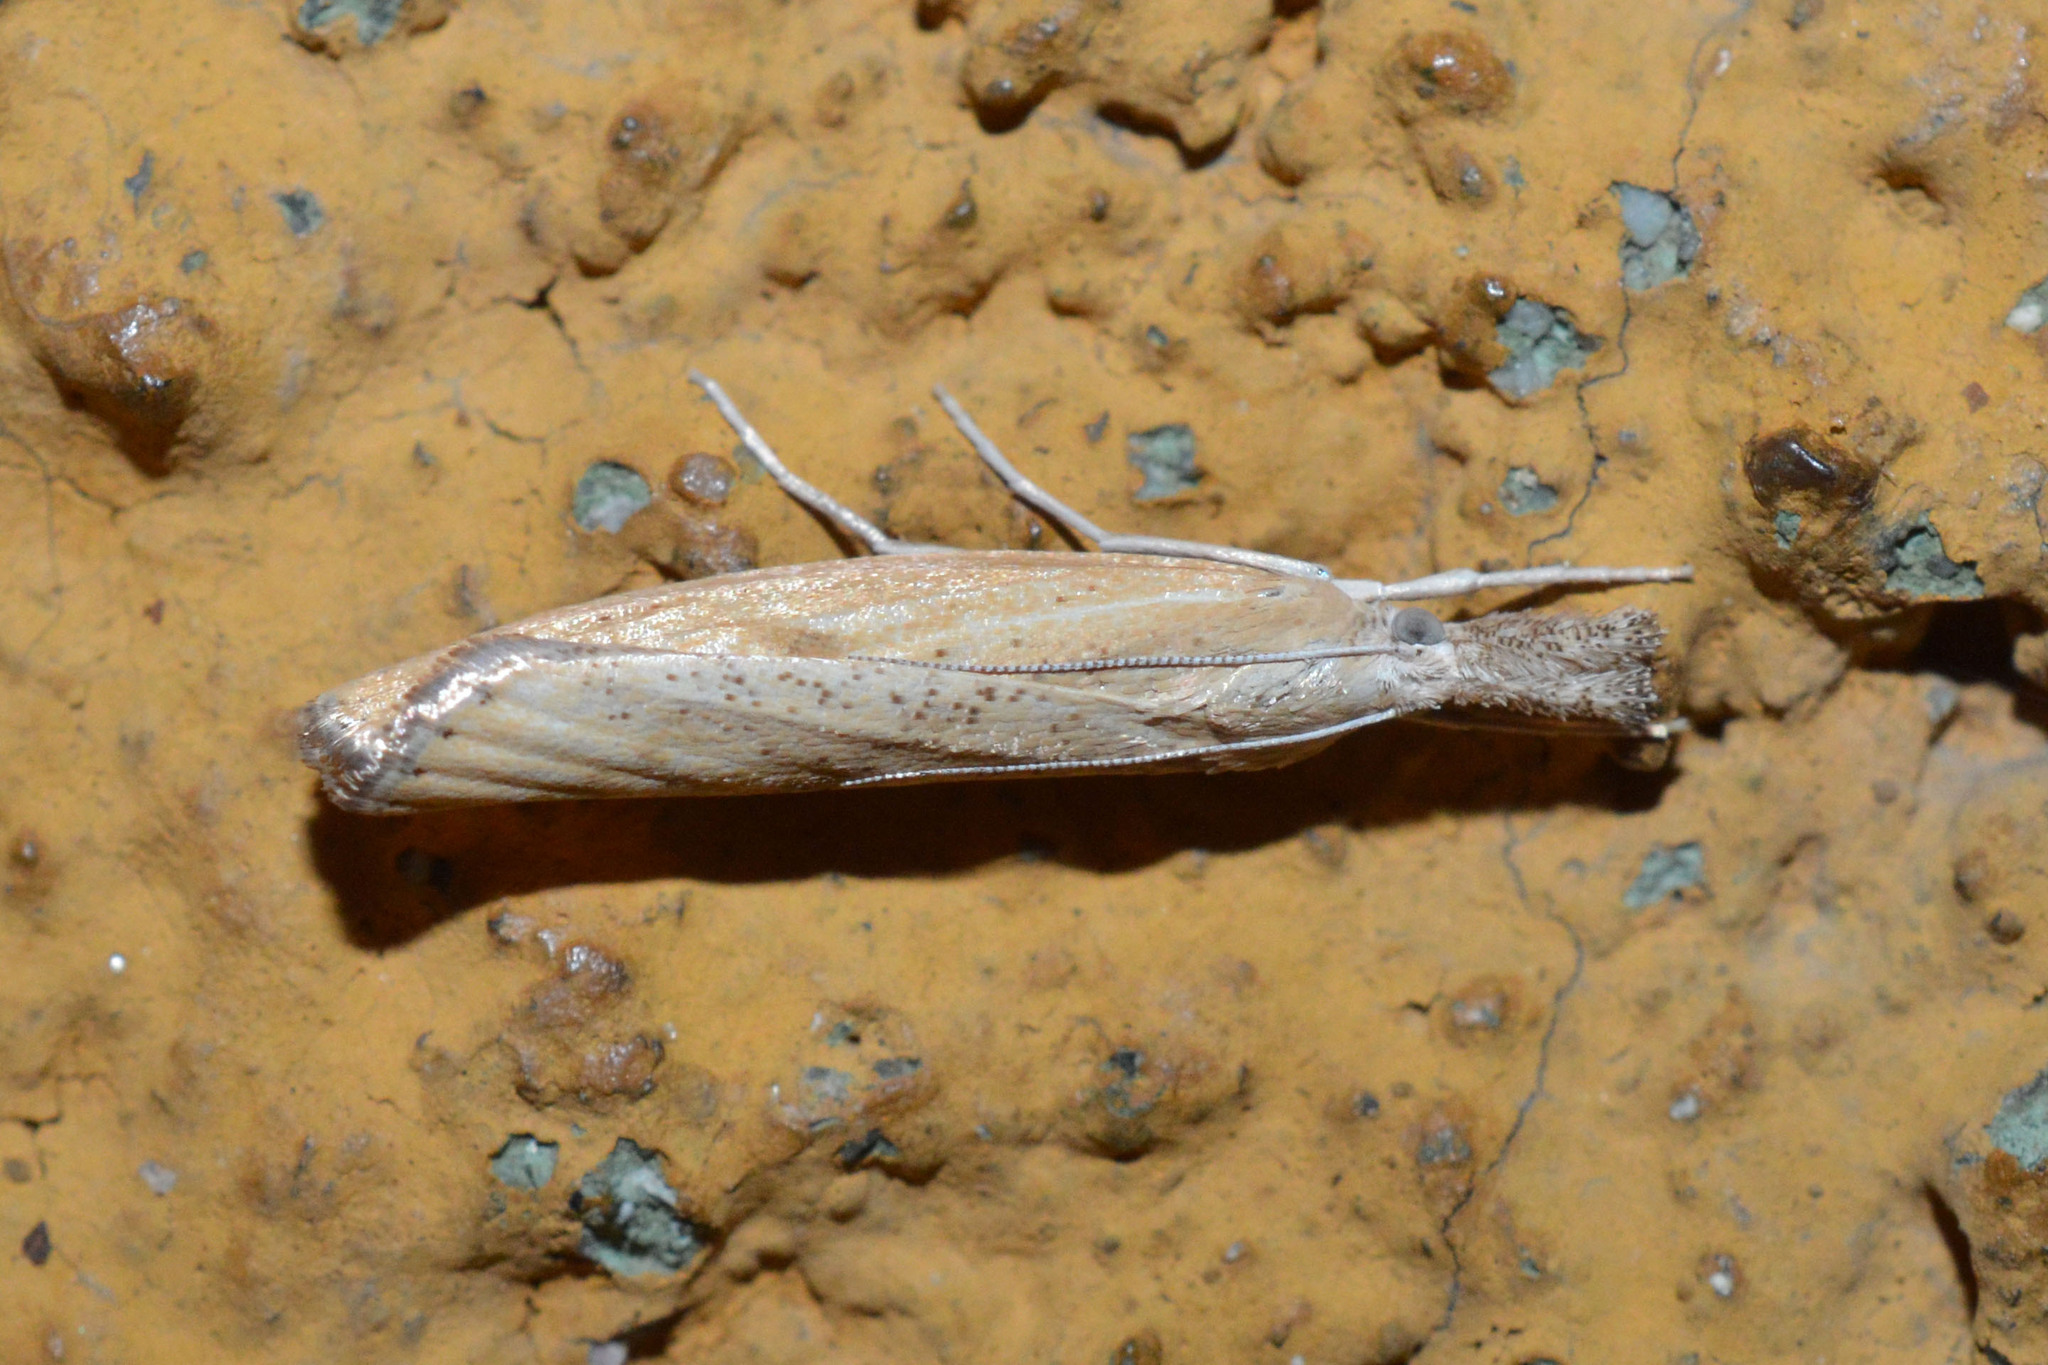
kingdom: Animalia
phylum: Arthropoda
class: Insecta
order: Lepidoptera
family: Crambidae
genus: Agriphila
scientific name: Agriphila inquinatella
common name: Barred grass-veneer
